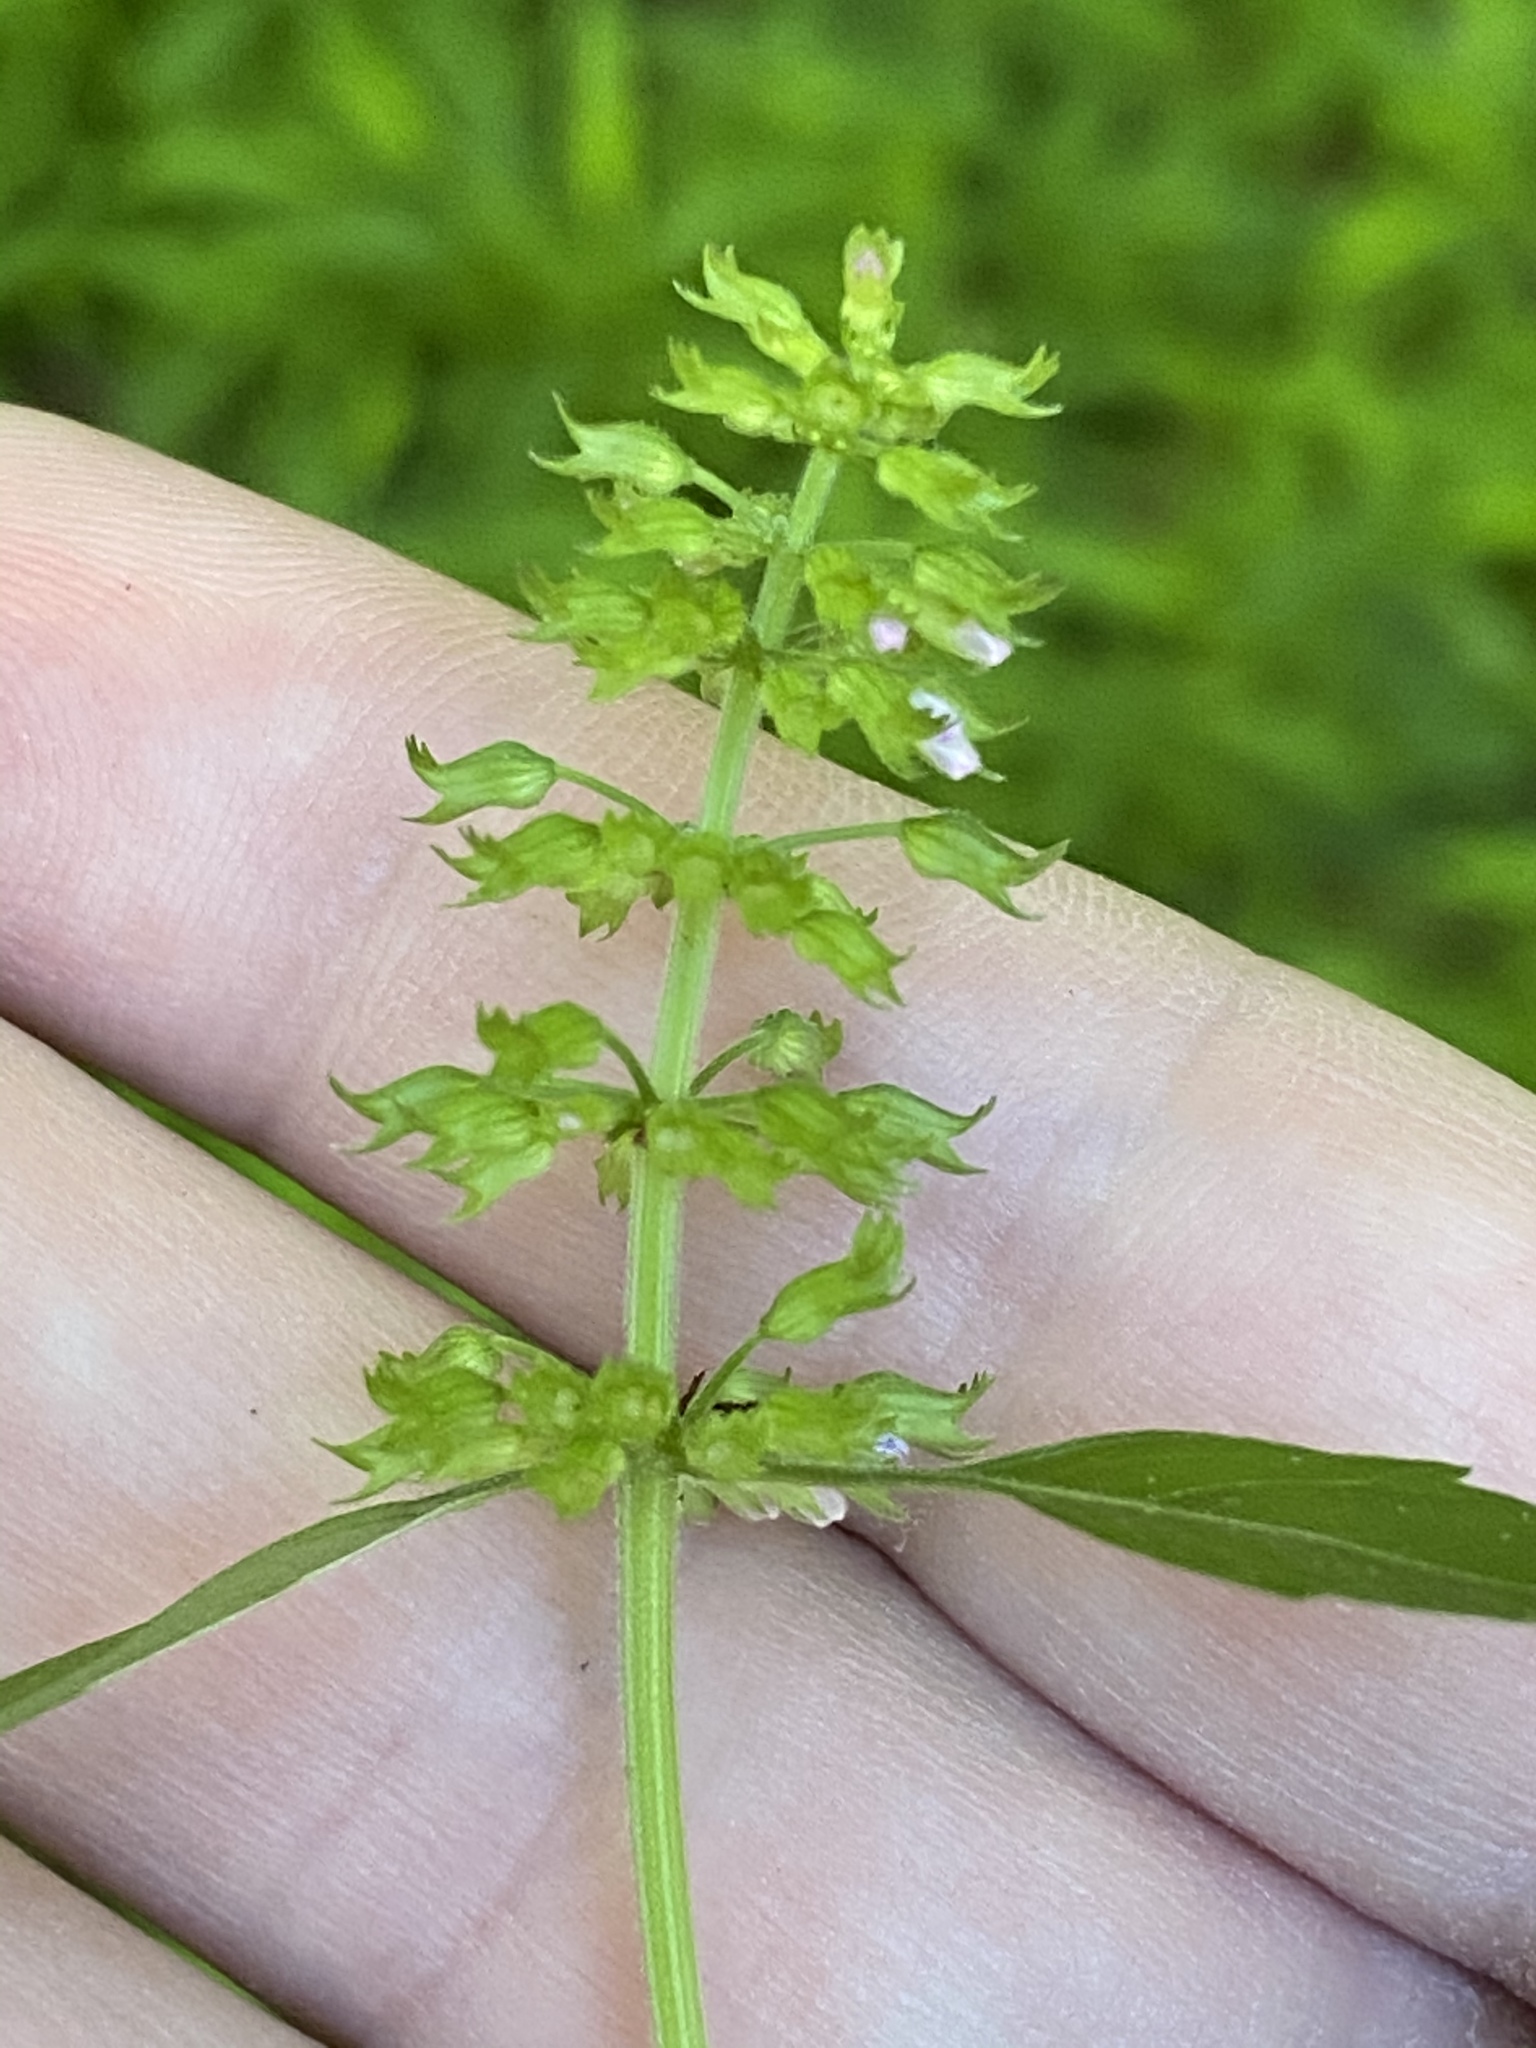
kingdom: Plantae
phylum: Tracheophyta
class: Magnoliopsida
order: Lamiales
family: Lamiaceae
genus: Clinopodium
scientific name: Clinopodium gracile
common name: Slender wild basil
